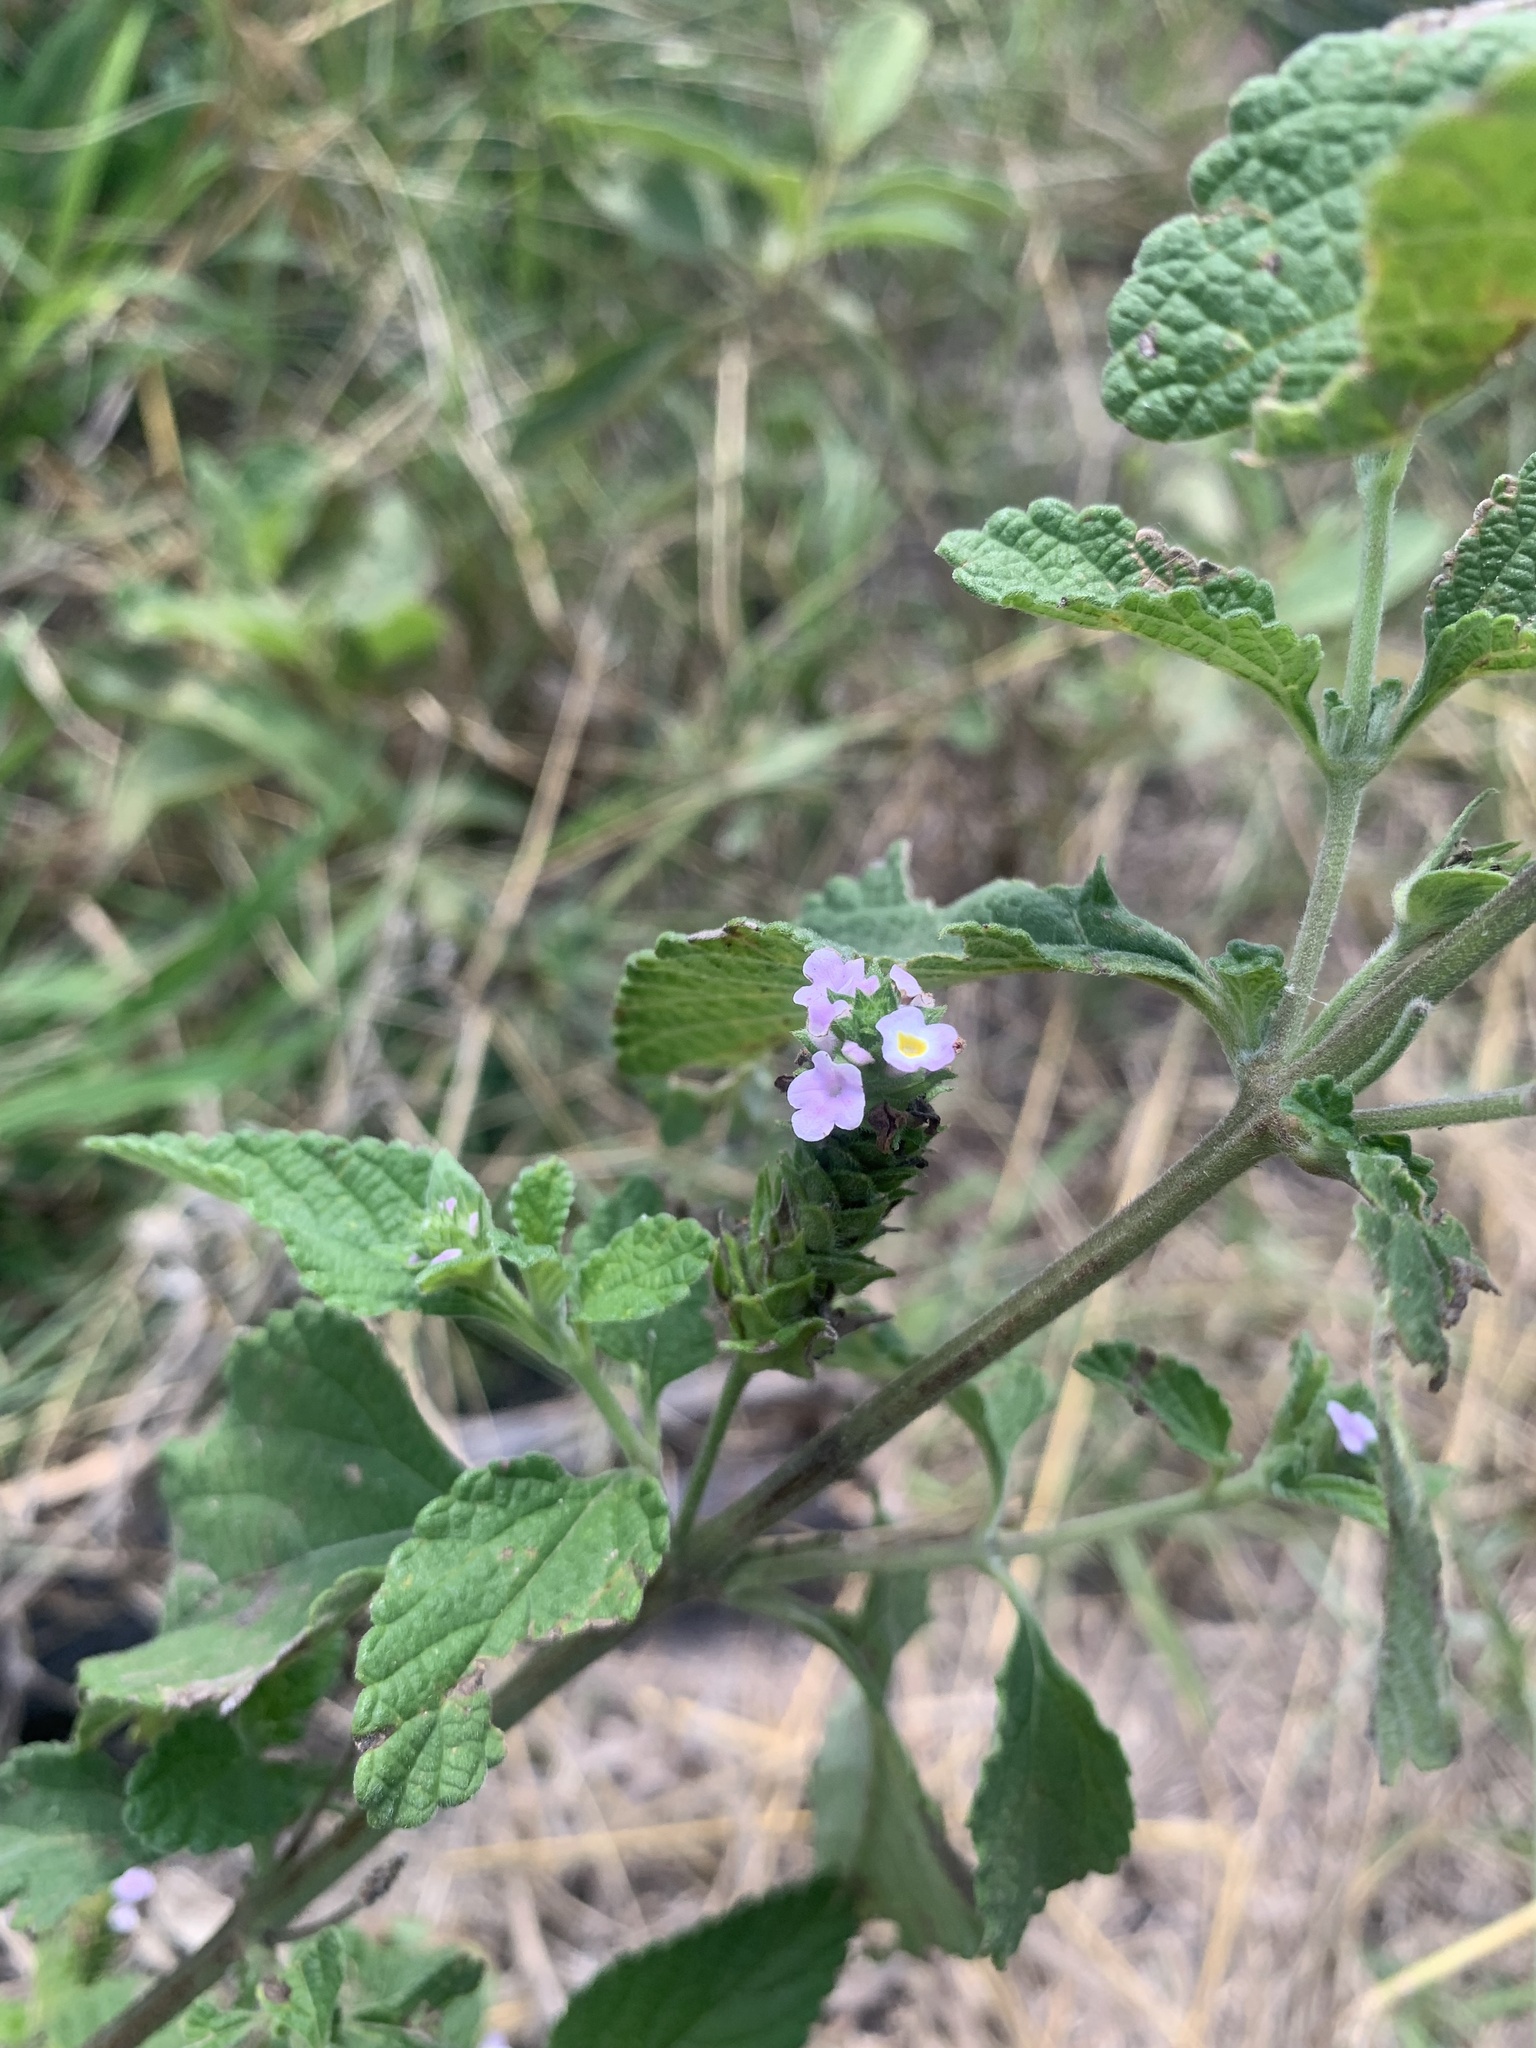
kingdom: Plantae
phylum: Tracheophyta
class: Magnoliopsida
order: Lamiales
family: Verbenaceae
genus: Lantana
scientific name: Lantana rugosa
